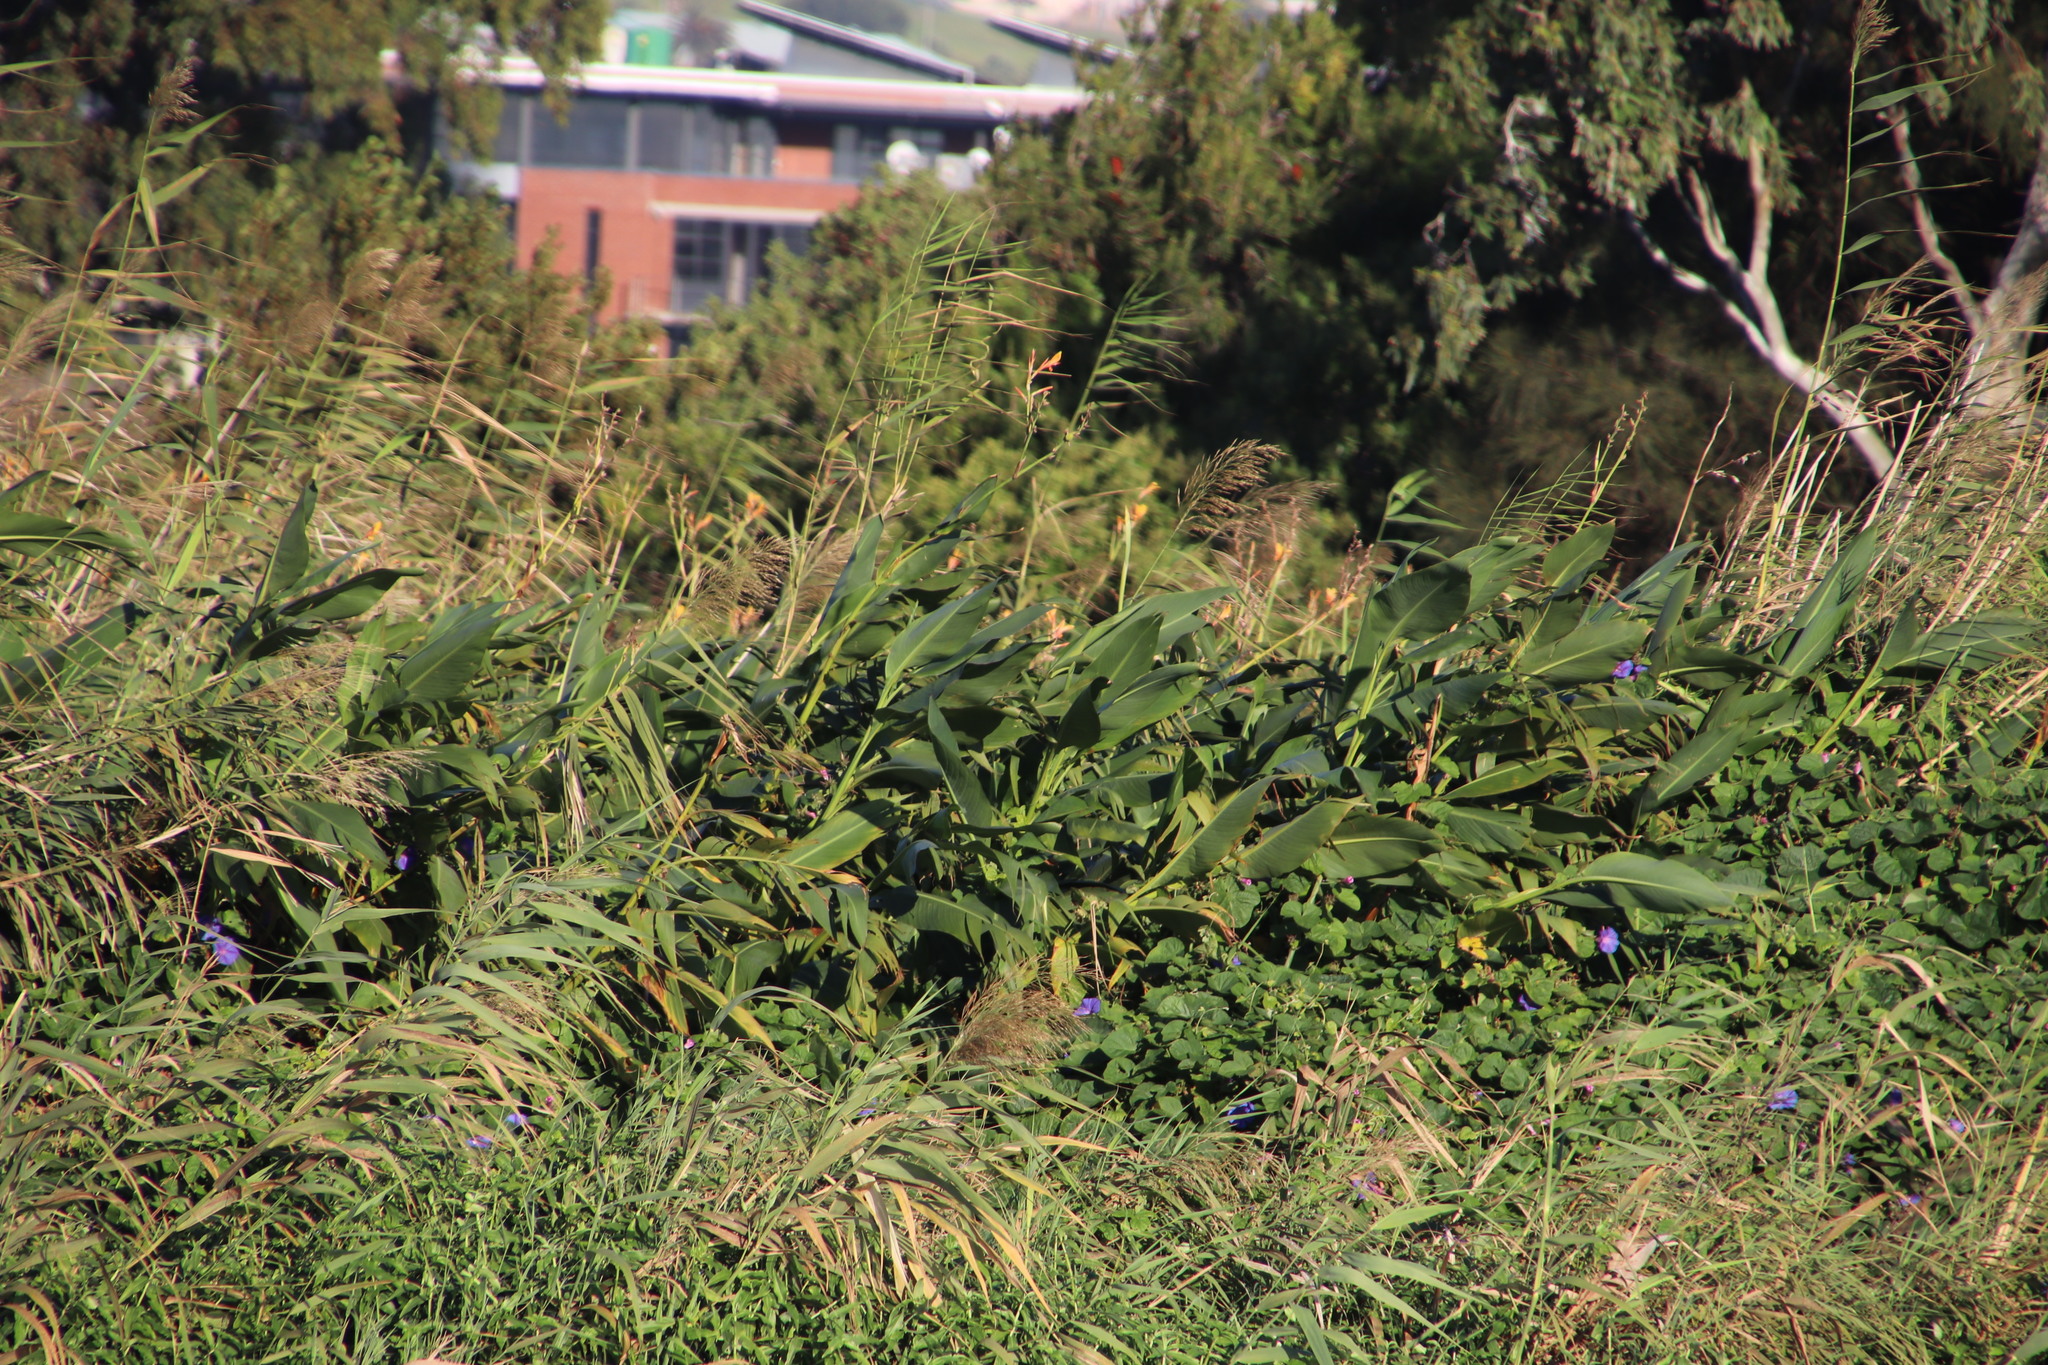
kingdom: Plantae
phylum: Tracheophyta
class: Liliopsida
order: Zingiberales
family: Cannaceae
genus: Canna
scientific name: Canna indica
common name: Indian shot
